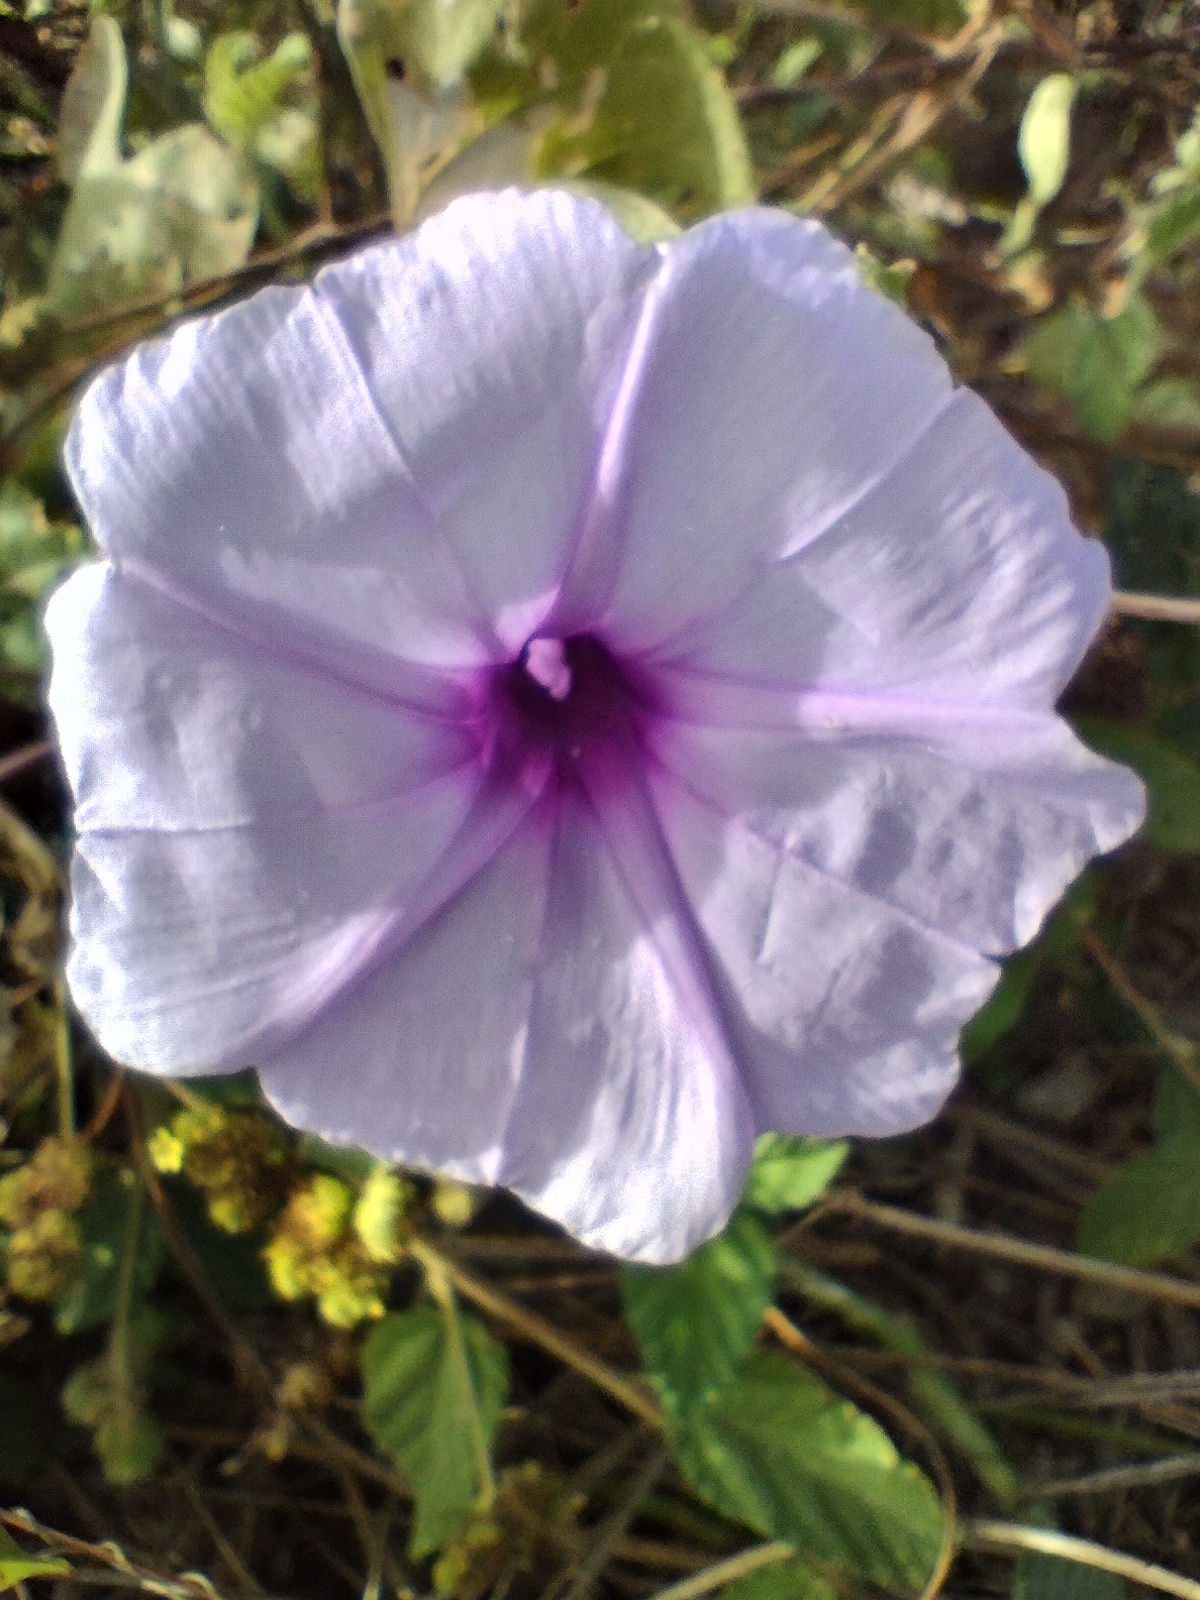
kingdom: Plantae
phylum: Tracheophyta
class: Magnoliopsida
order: Solanales
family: Convolvulaceae
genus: Ipomoea
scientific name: Ipomoea bahiensis
